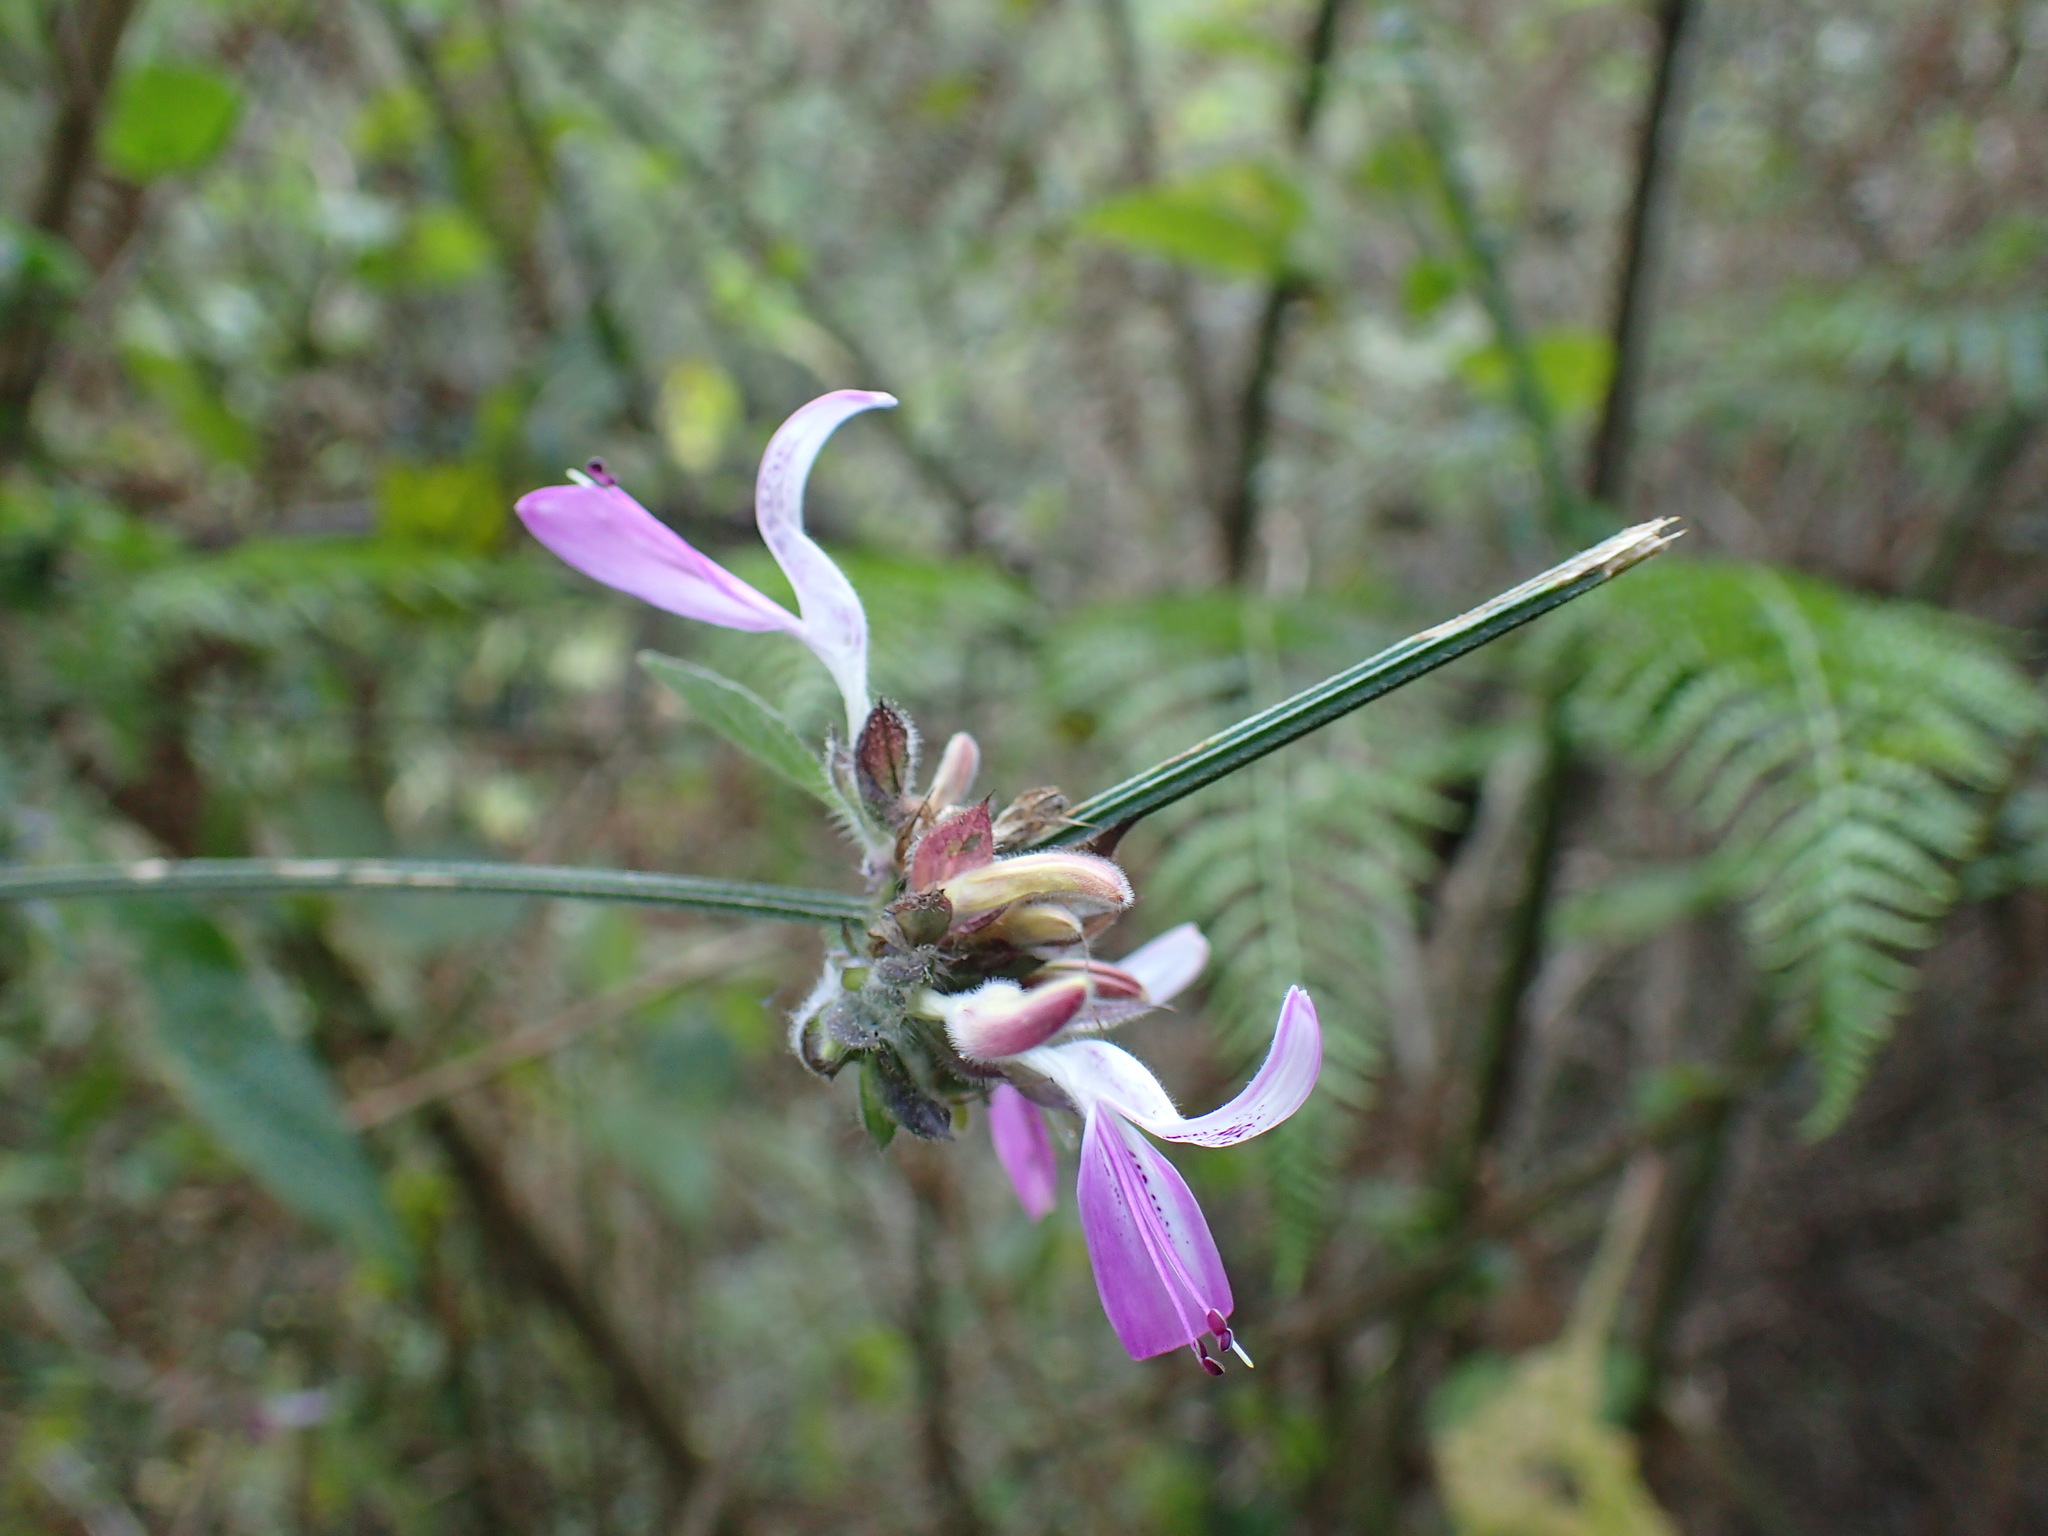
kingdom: Plantae
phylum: Tracheophyta
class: Magnoliopsida
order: Lamiales
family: Acanthaceae
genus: Dicliptera
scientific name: Dicliptera cernua
